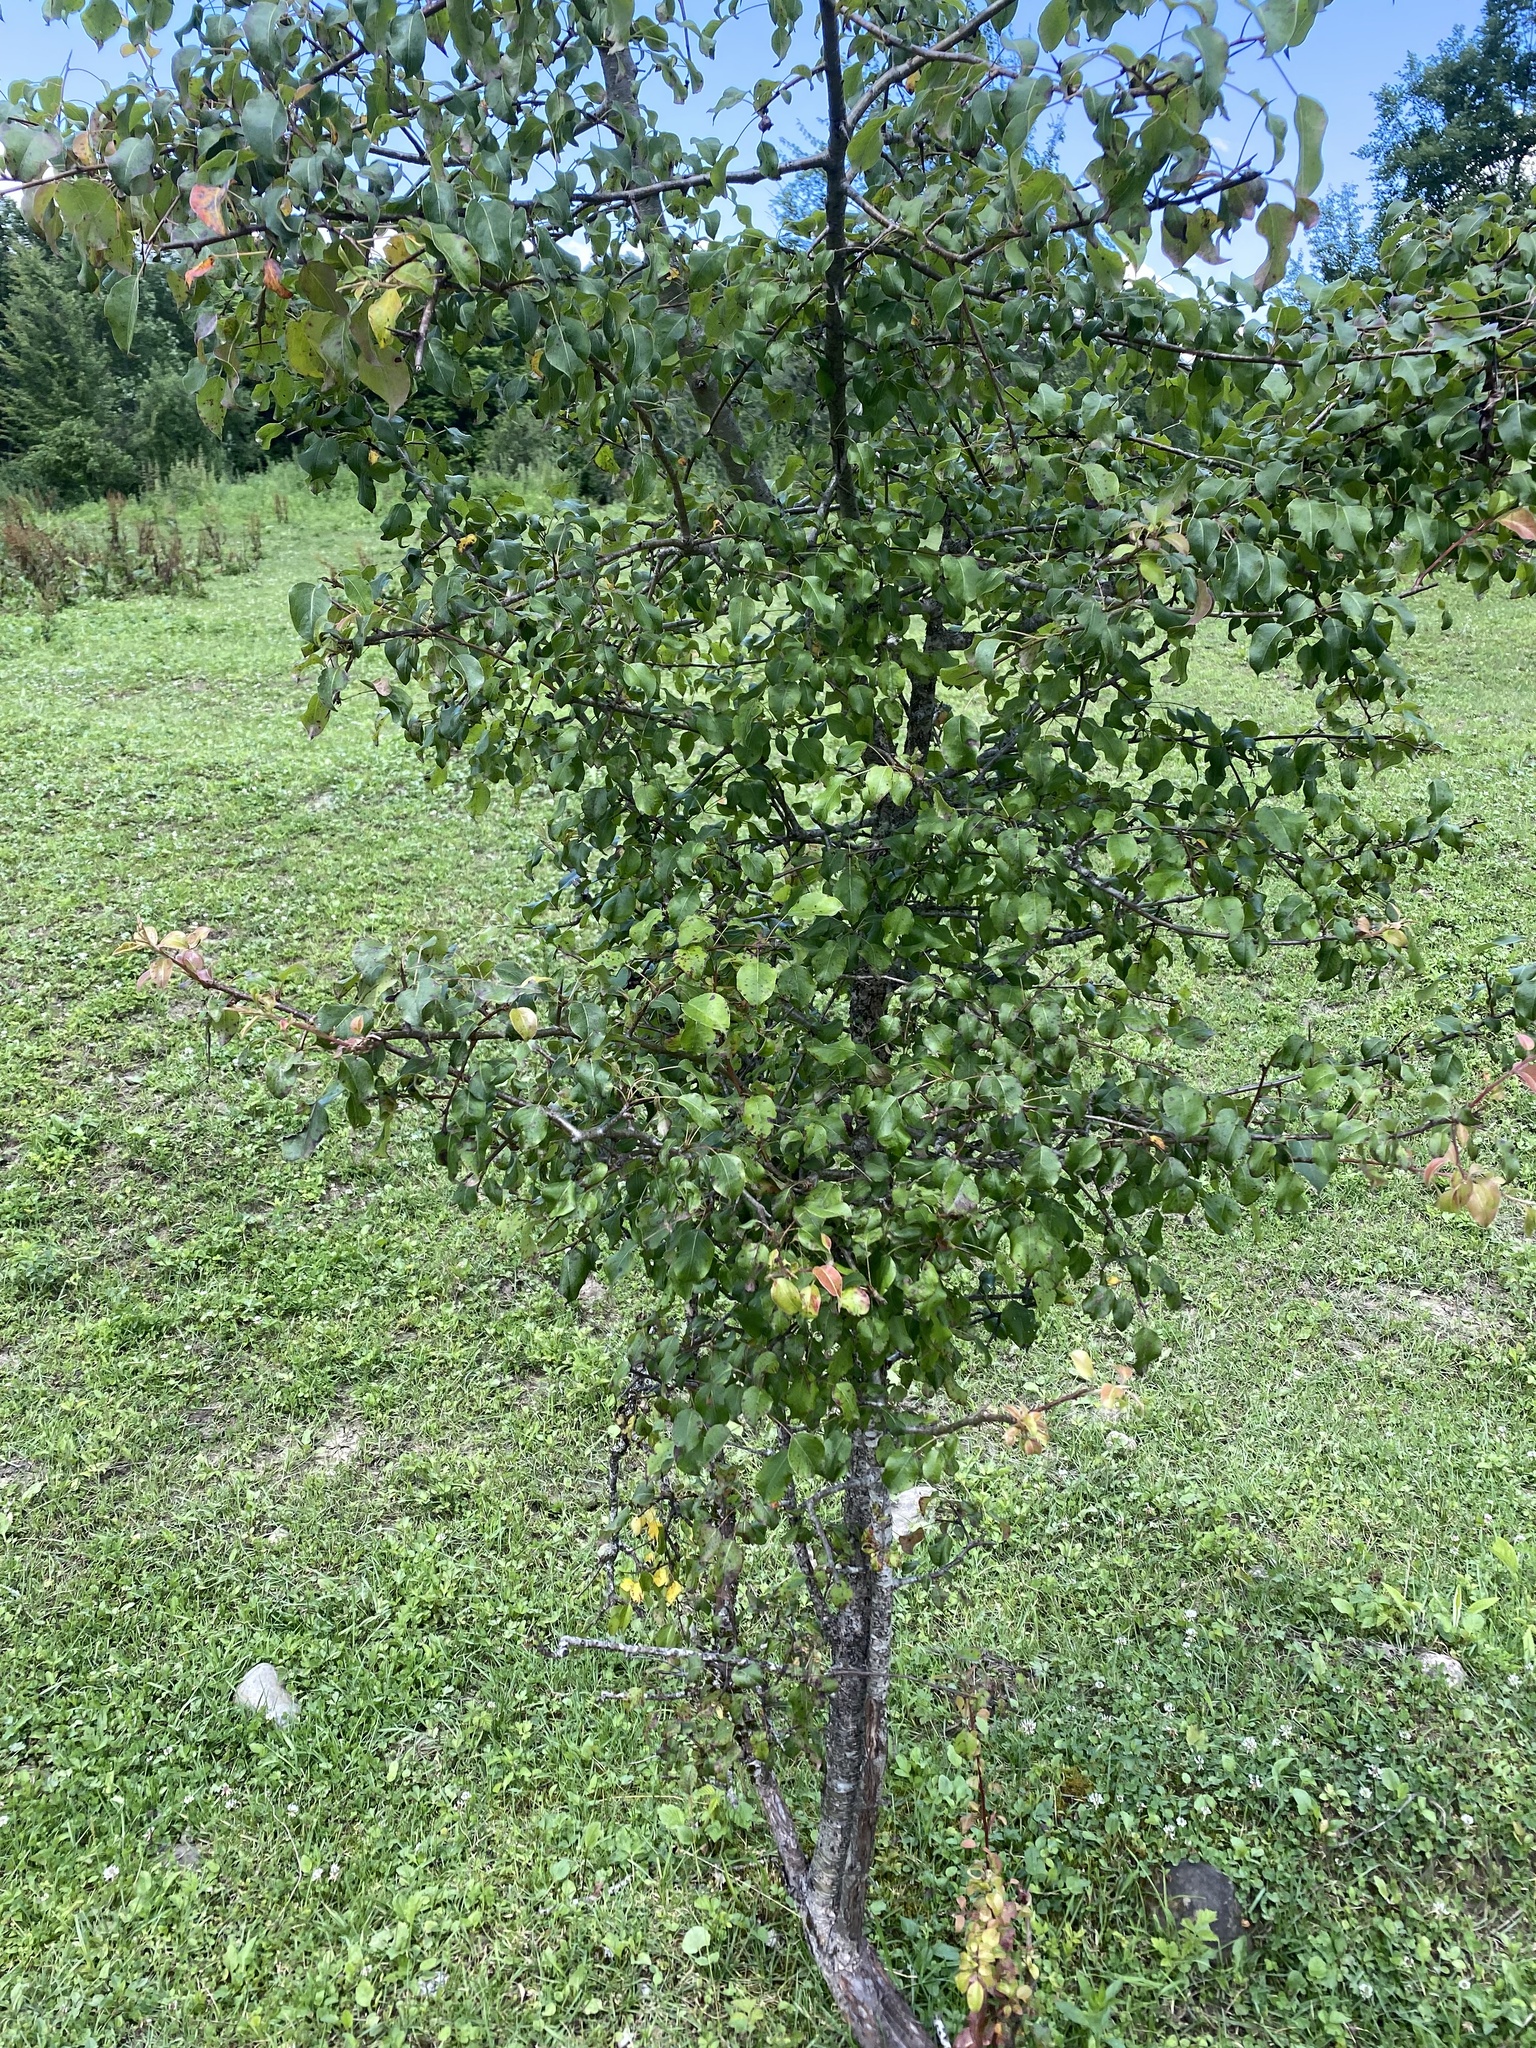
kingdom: Plantae
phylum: Tracheophyta
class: Magnoliopsida
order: Rosales
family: Rosaceae
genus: Pyrus
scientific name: Pyrus communis
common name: Pear
